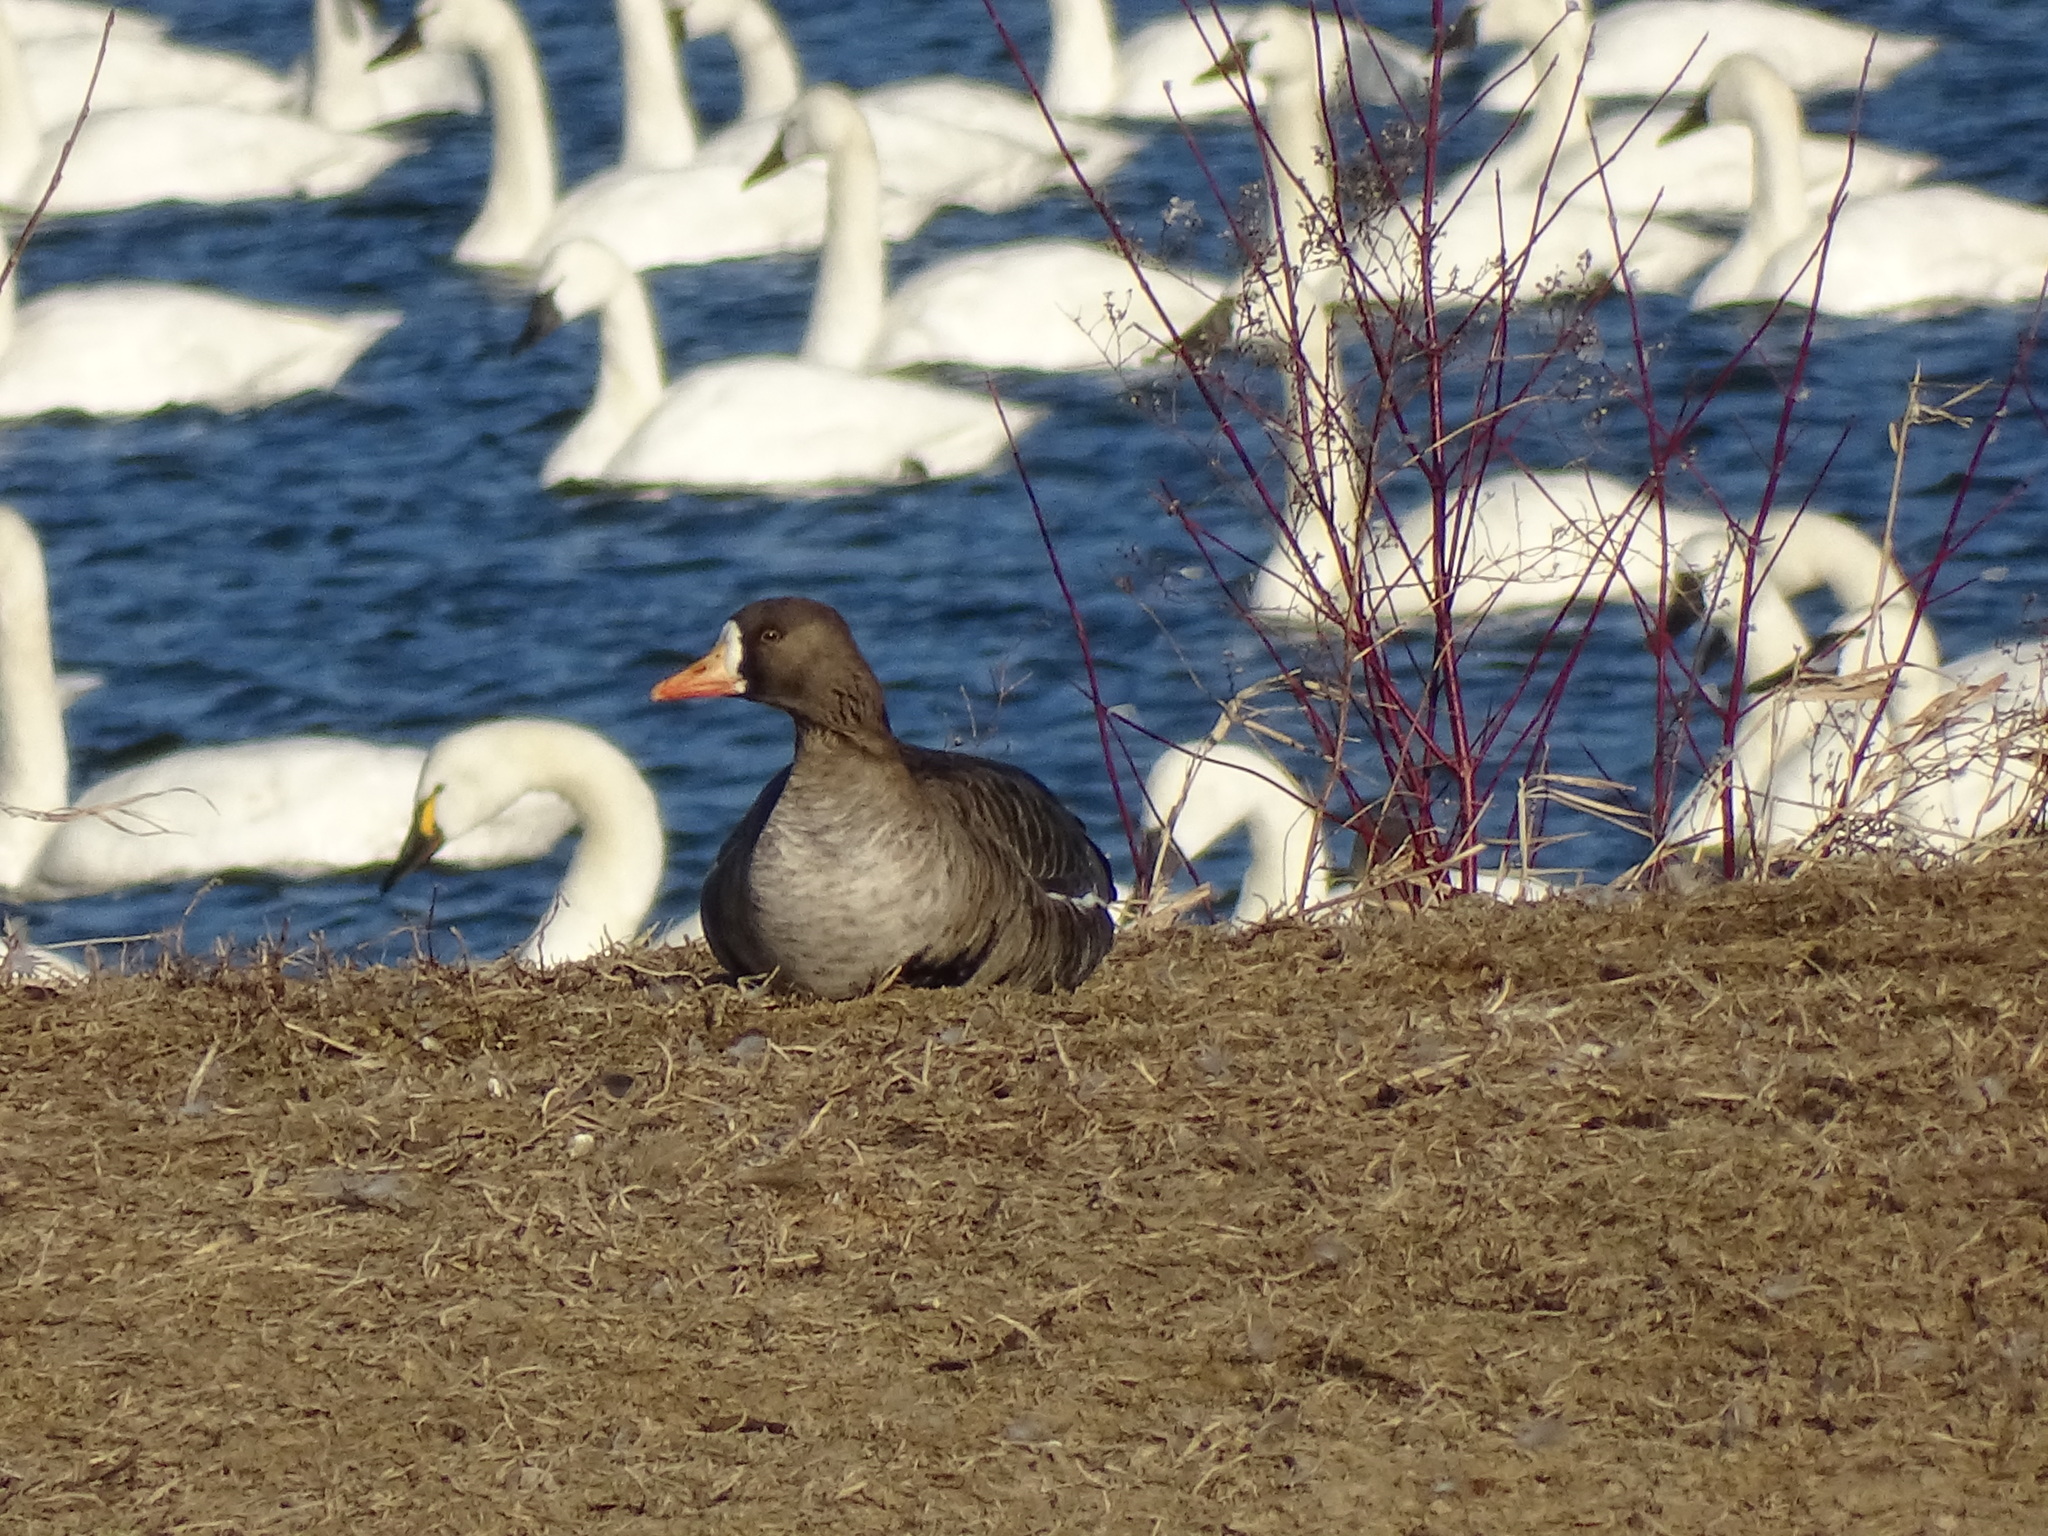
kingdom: Animalia
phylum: Chordata
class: Aves
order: Anseriformes
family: Anatidae
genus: Anser
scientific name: Anser albifrons
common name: Greater white-fronted goose
